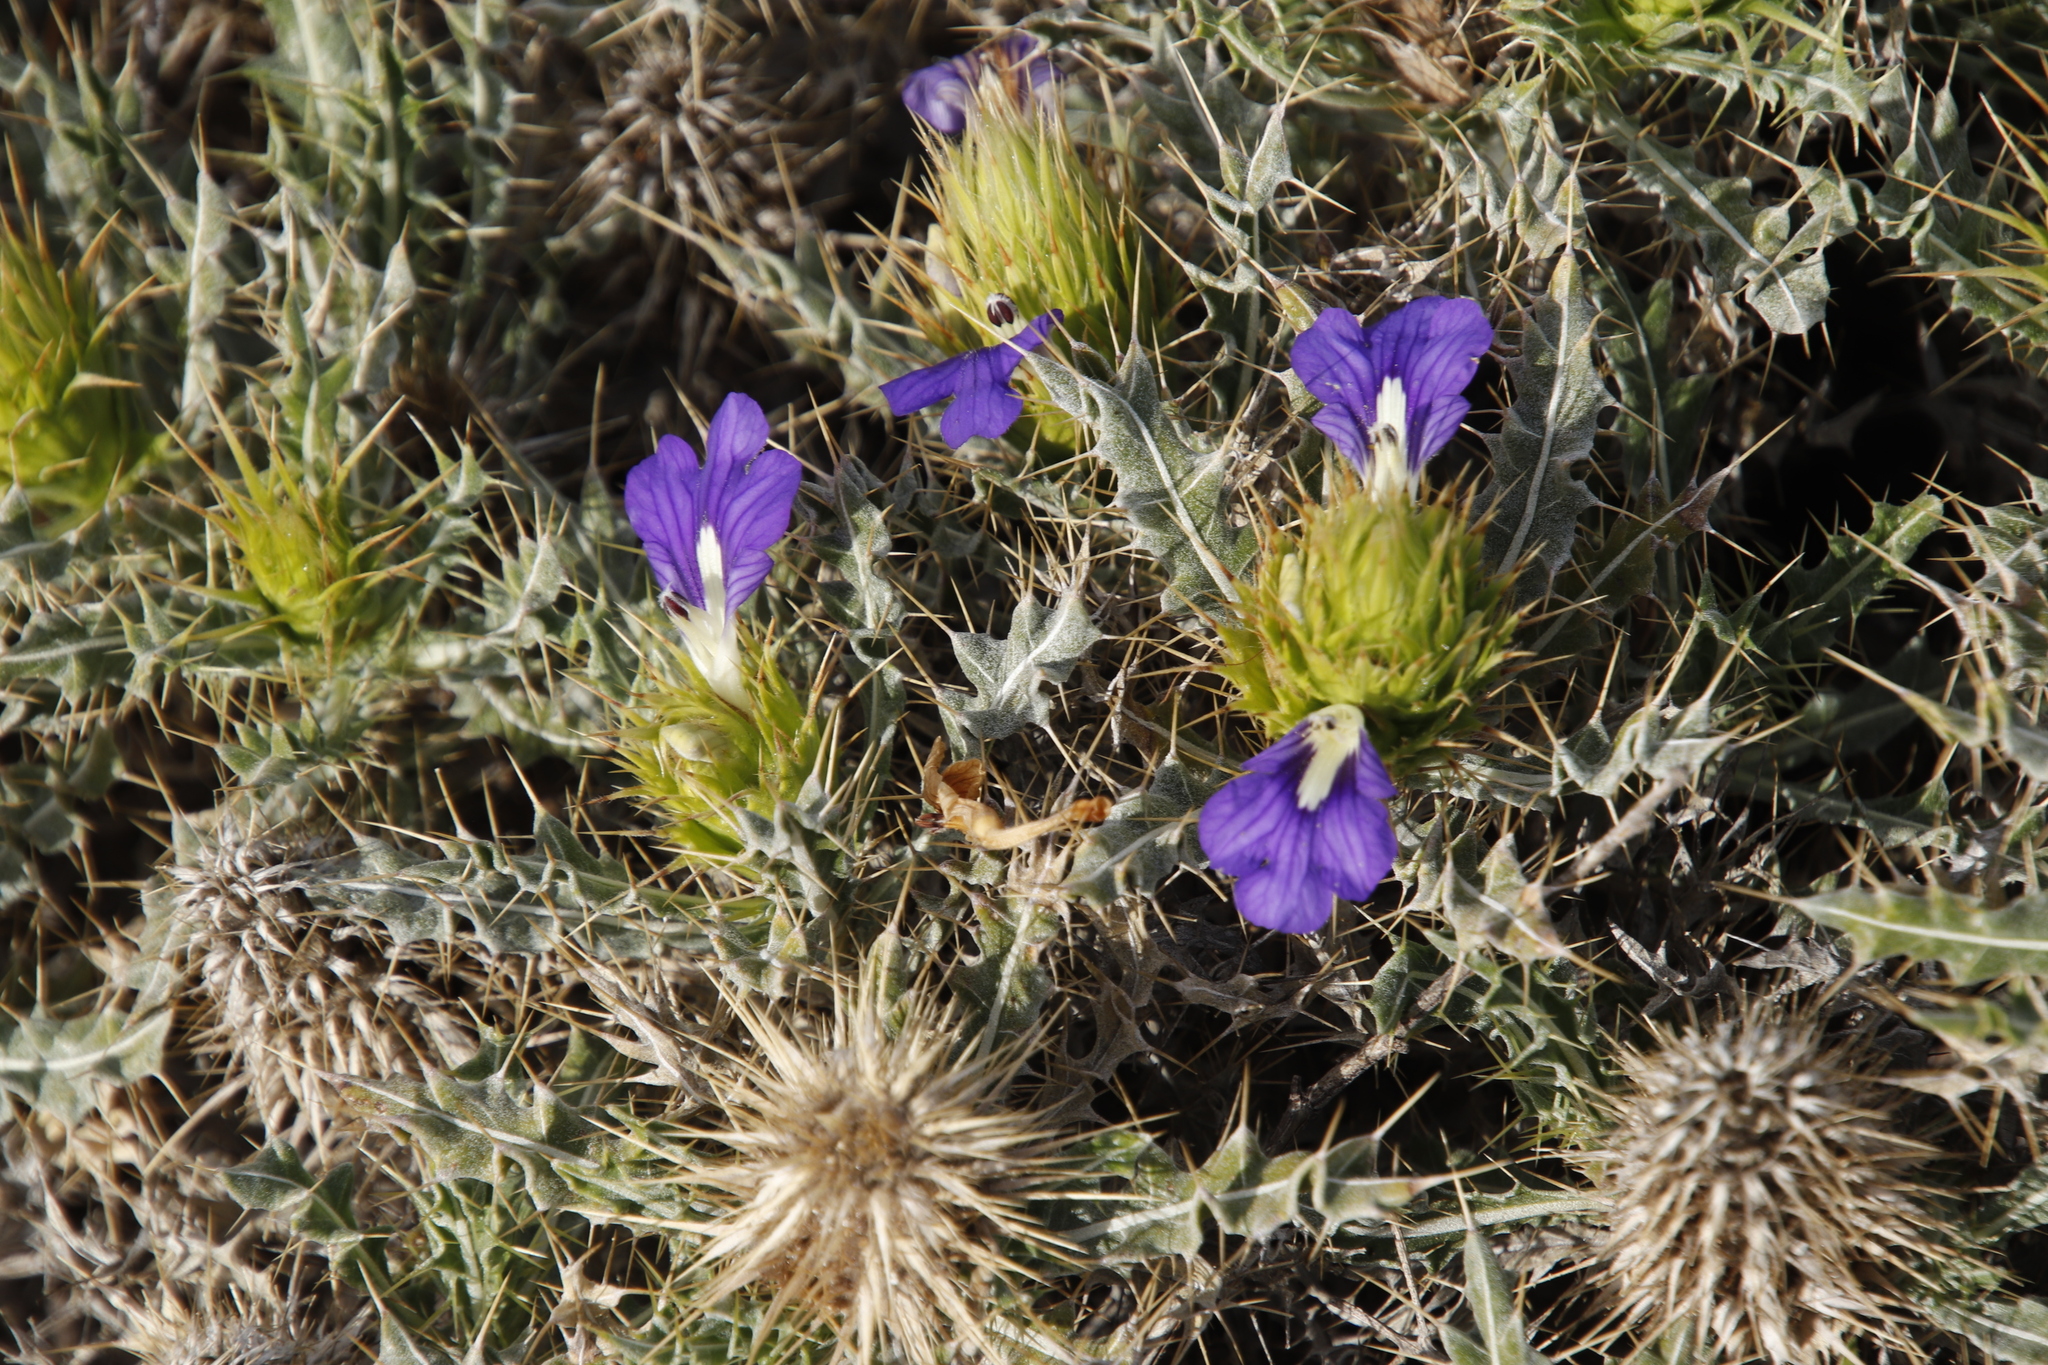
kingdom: Plantae
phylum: Tracheophyta
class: Magnoliopsida
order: Lamiales
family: Acanthaceae
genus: Acanthopsis
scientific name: Acanthopsis horrida
